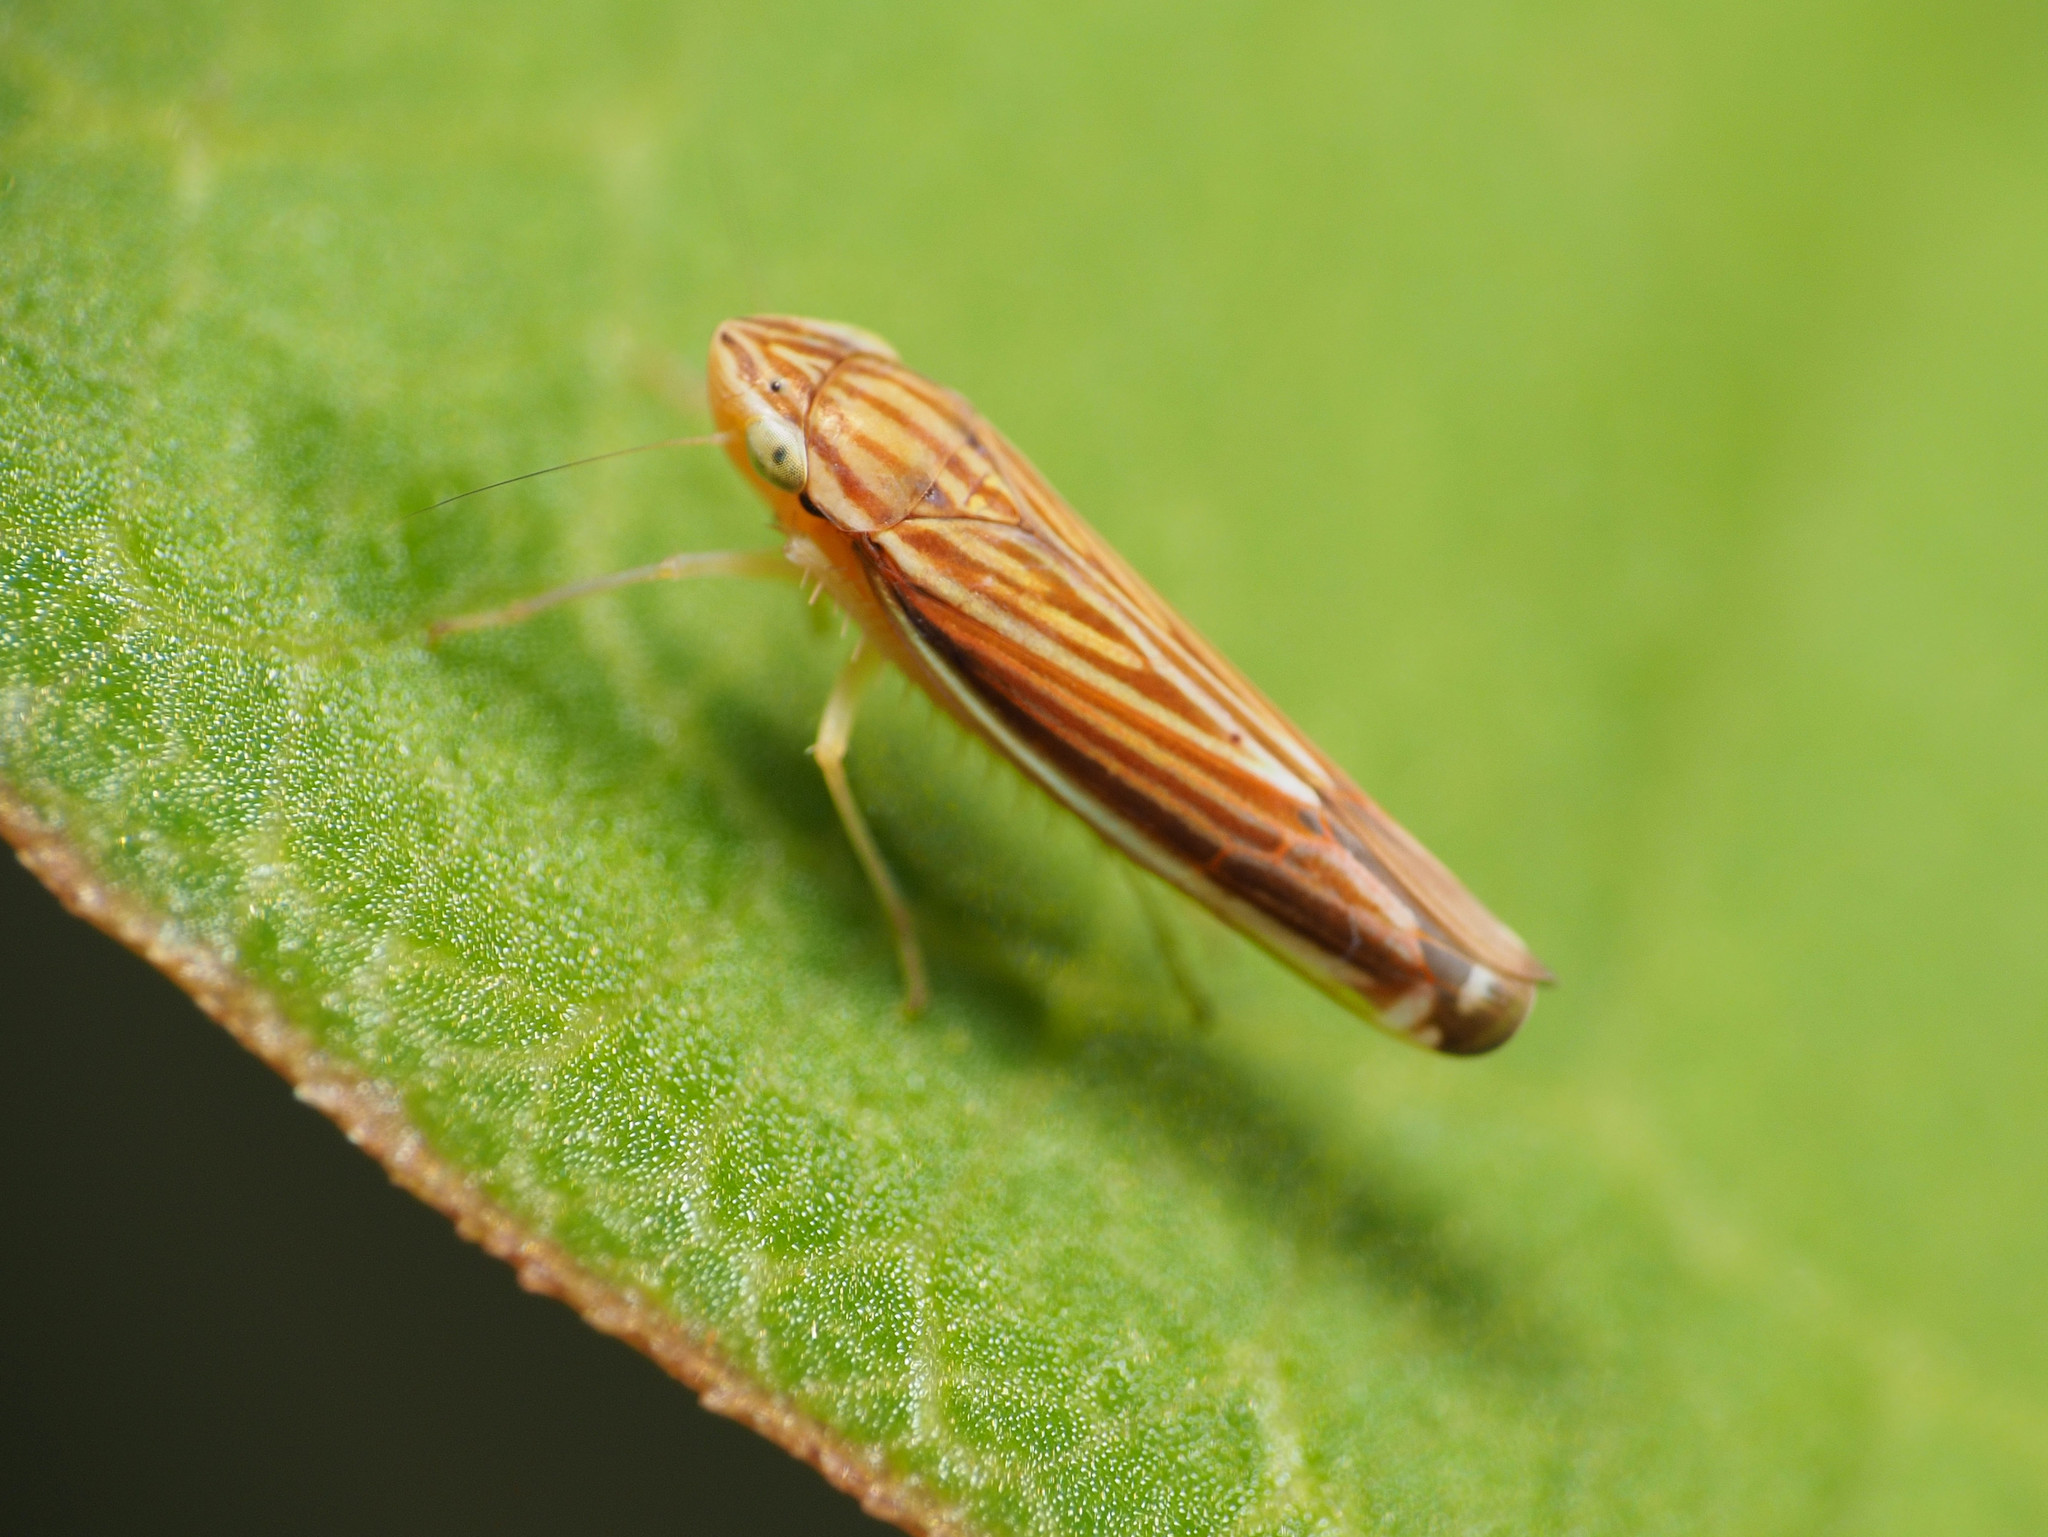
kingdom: Animalia
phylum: Arthropoda
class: Insecta
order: Hemiptera
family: Cicadellidae
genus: Sibovia
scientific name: Sibovia occatoria
